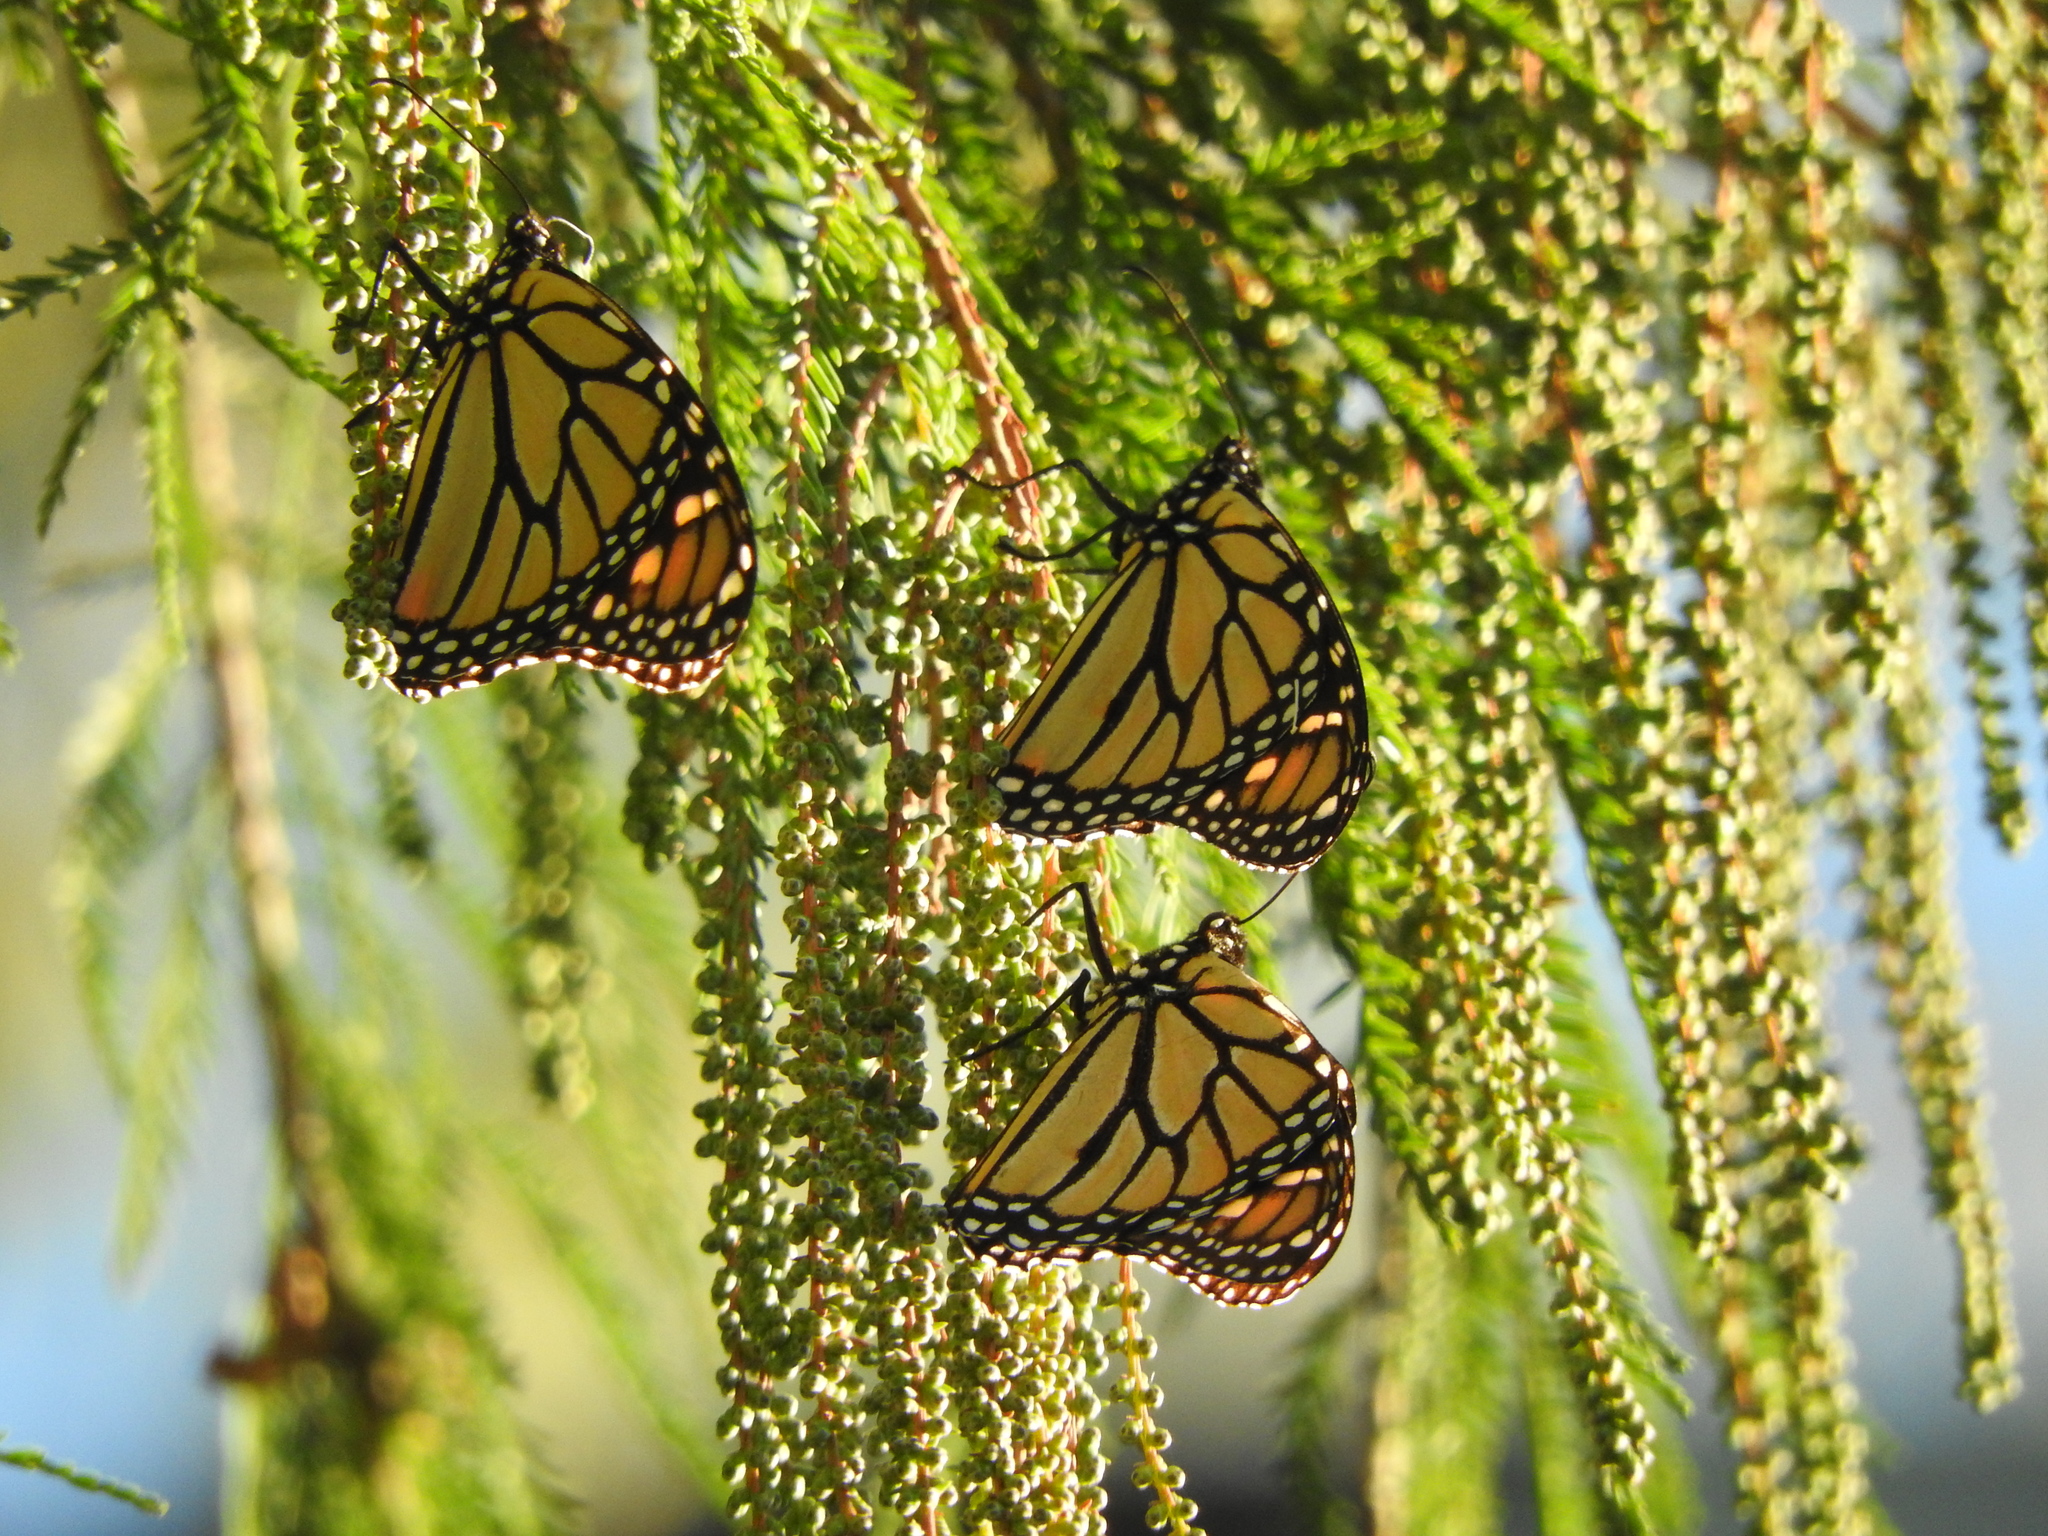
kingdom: Animalia
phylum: Arthropoda
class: Insecta
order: Lepidoptera
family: Nymphalidae
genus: Danaus
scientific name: Danaus plexippus
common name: Monarch
